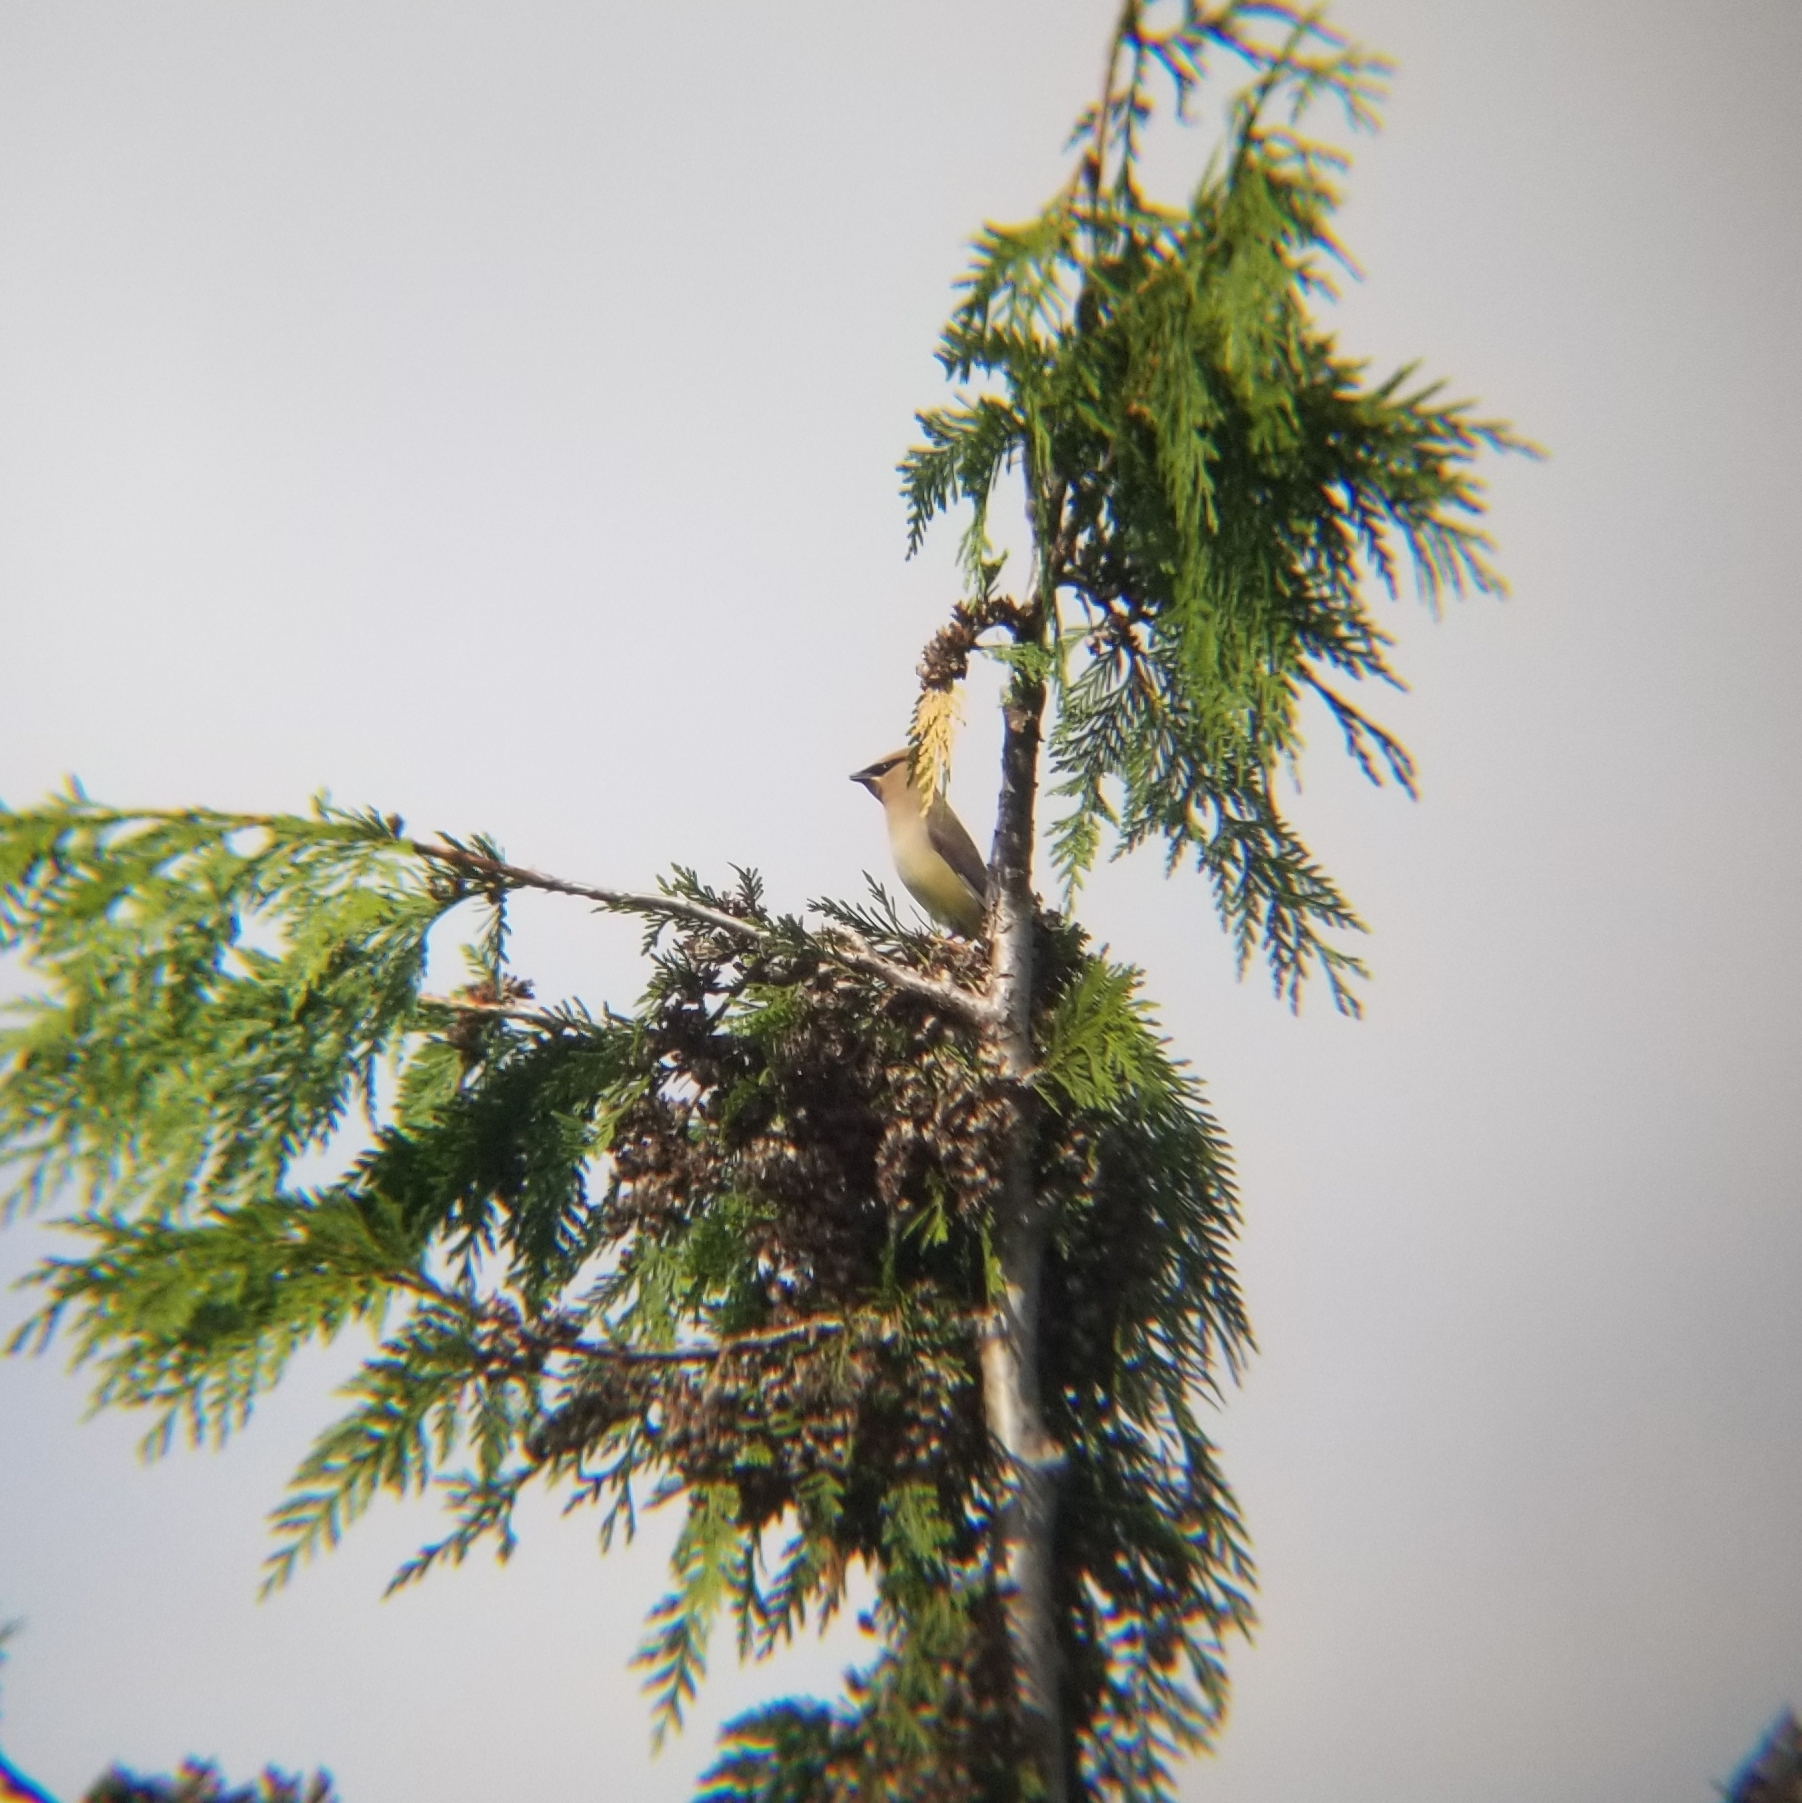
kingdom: Animalia
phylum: Chordata
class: Aves
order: Passeriformes
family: Bombycillidae
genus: Bombycilla
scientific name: Bombycilla cedrorum
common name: Cedar waxwing
